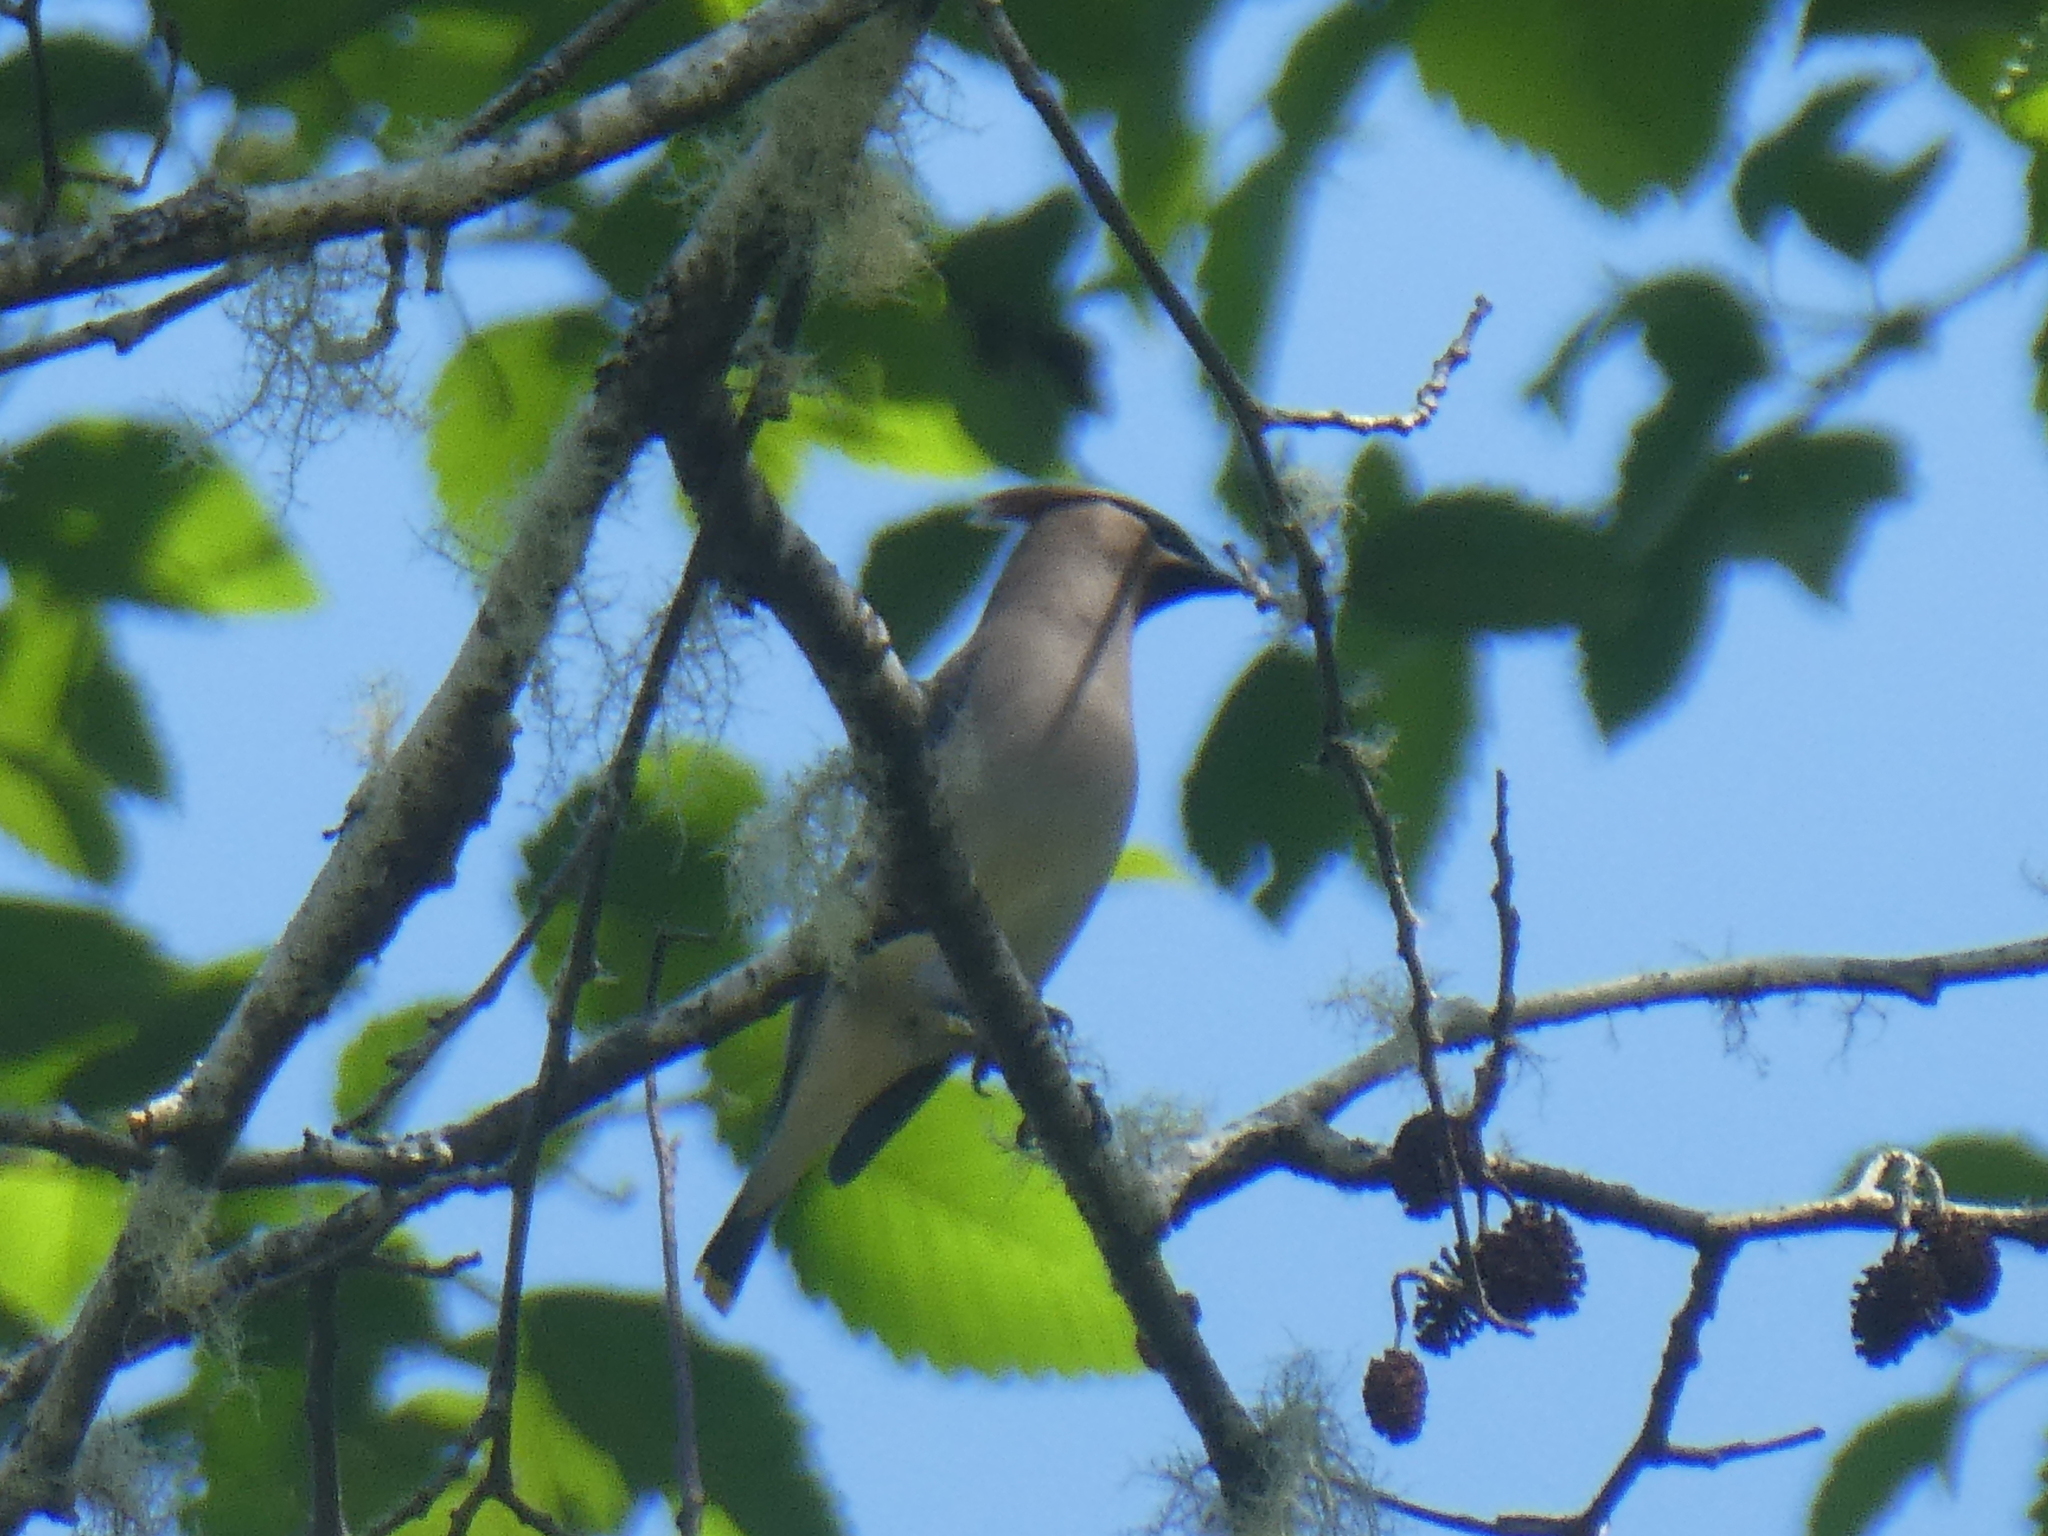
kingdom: Animalia
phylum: Chordata
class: Aves
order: Passeriformes
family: Bombycillidae
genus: Bombycilla
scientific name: Bombycilla cedrorum
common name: Cedar waxwing
